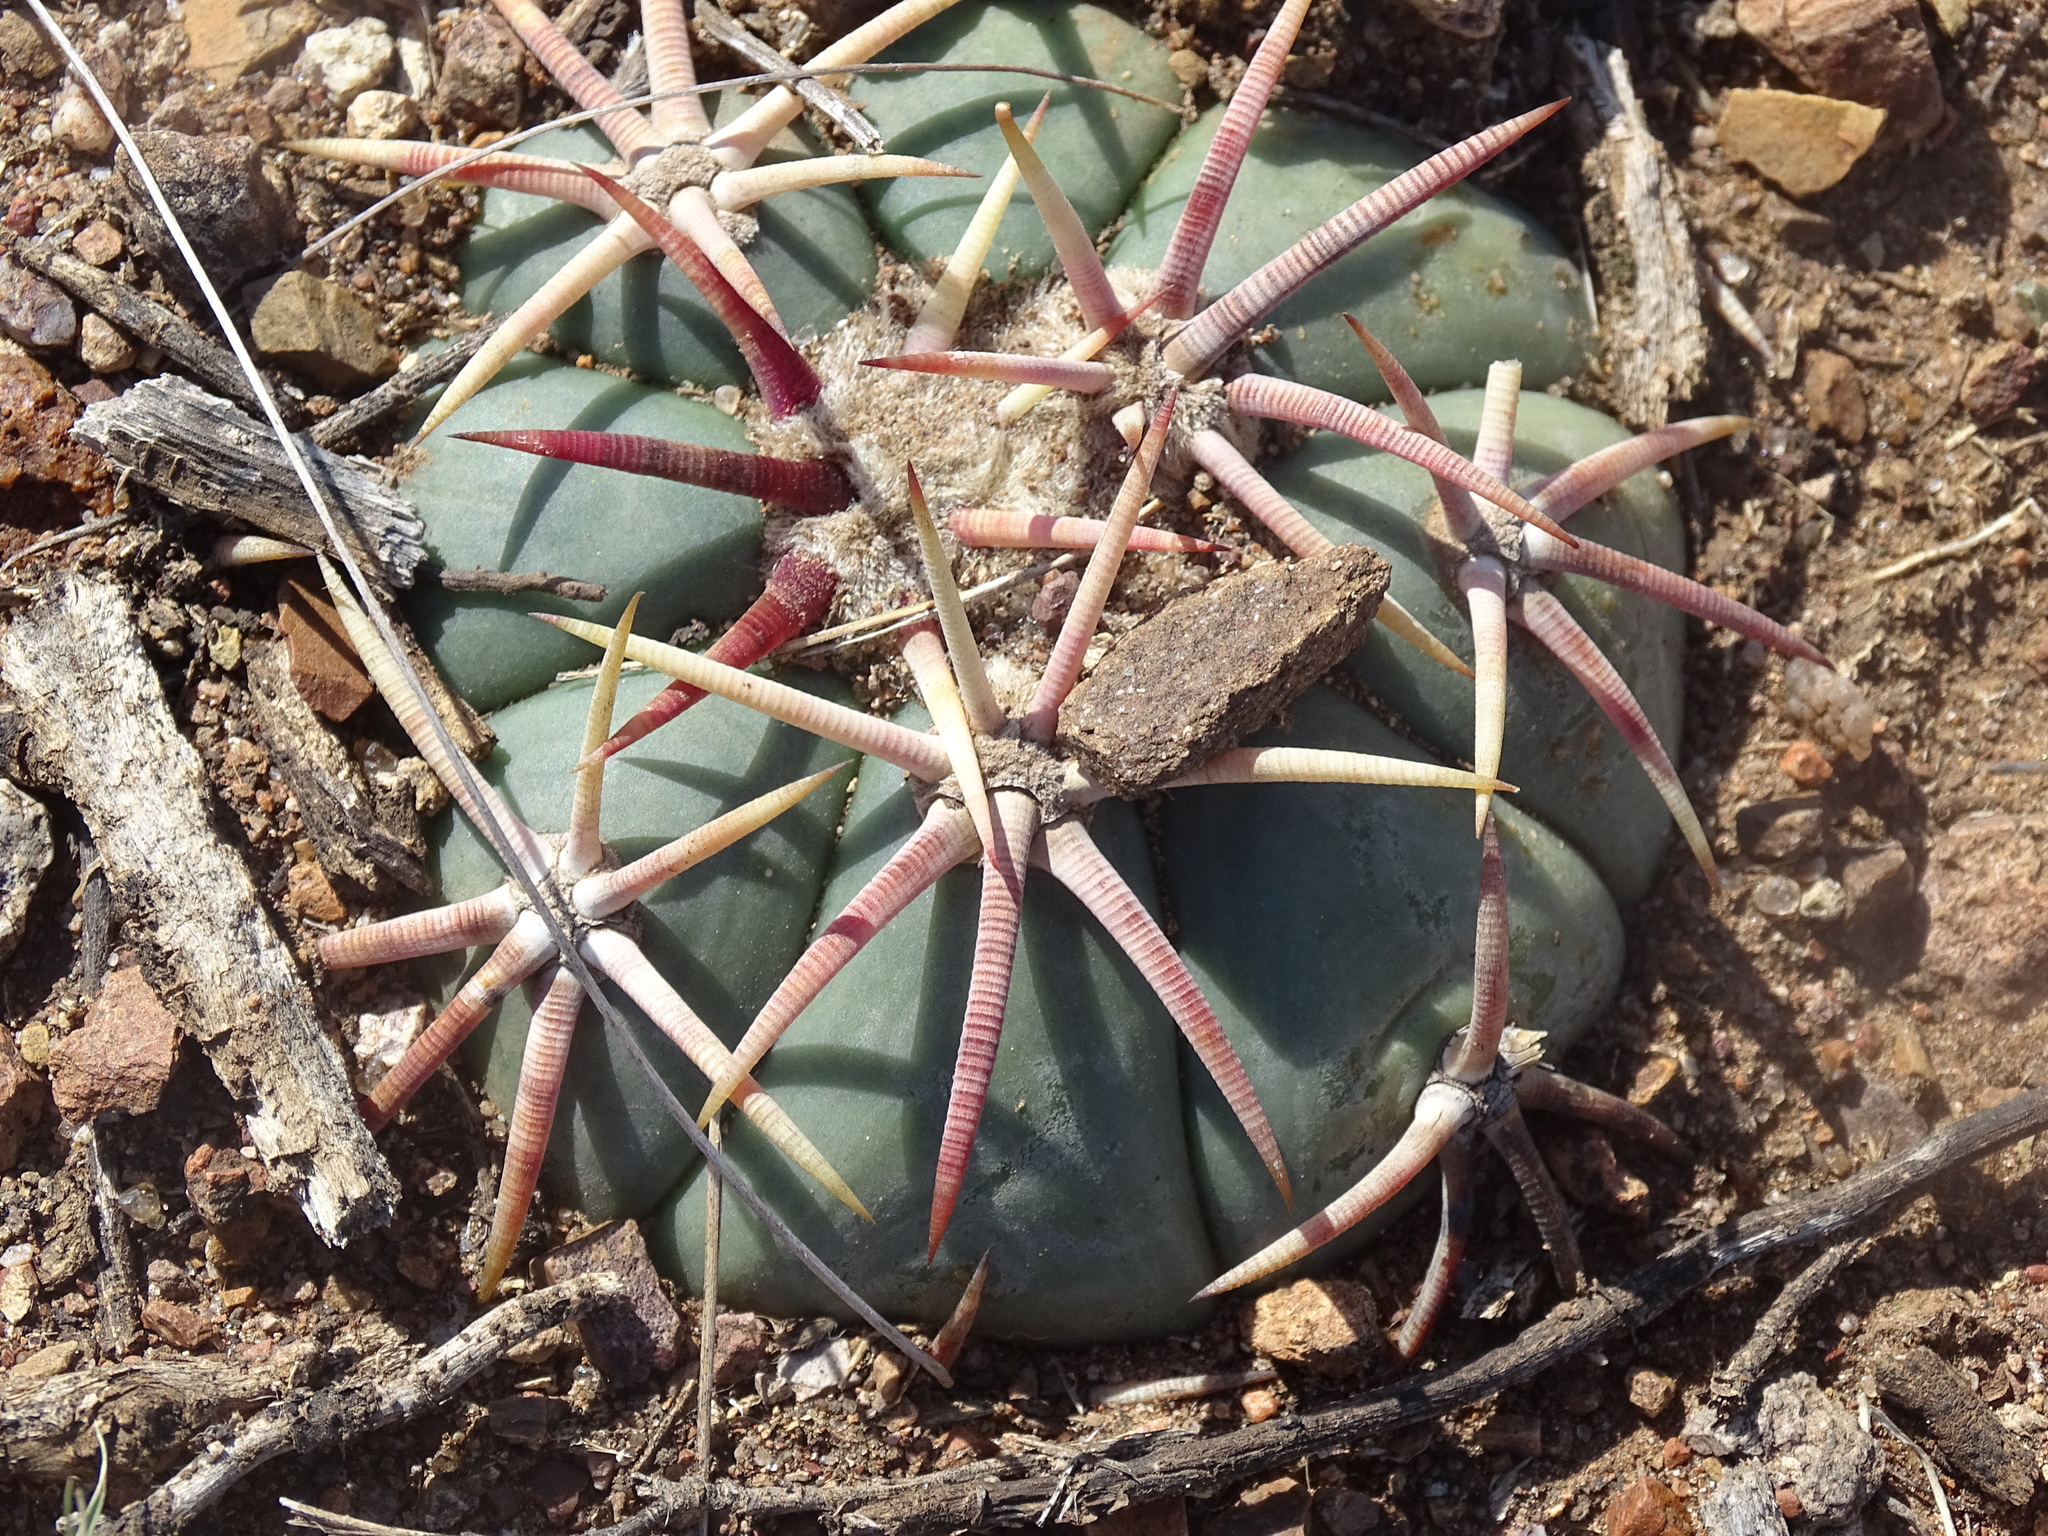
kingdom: Plantae
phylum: Tracheophyta
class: Magnoliopsida
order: Caryophyllales
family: Cactaceae
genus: Echinocactus
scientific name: Echinocactus horizonthalonius
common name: Devilshead
